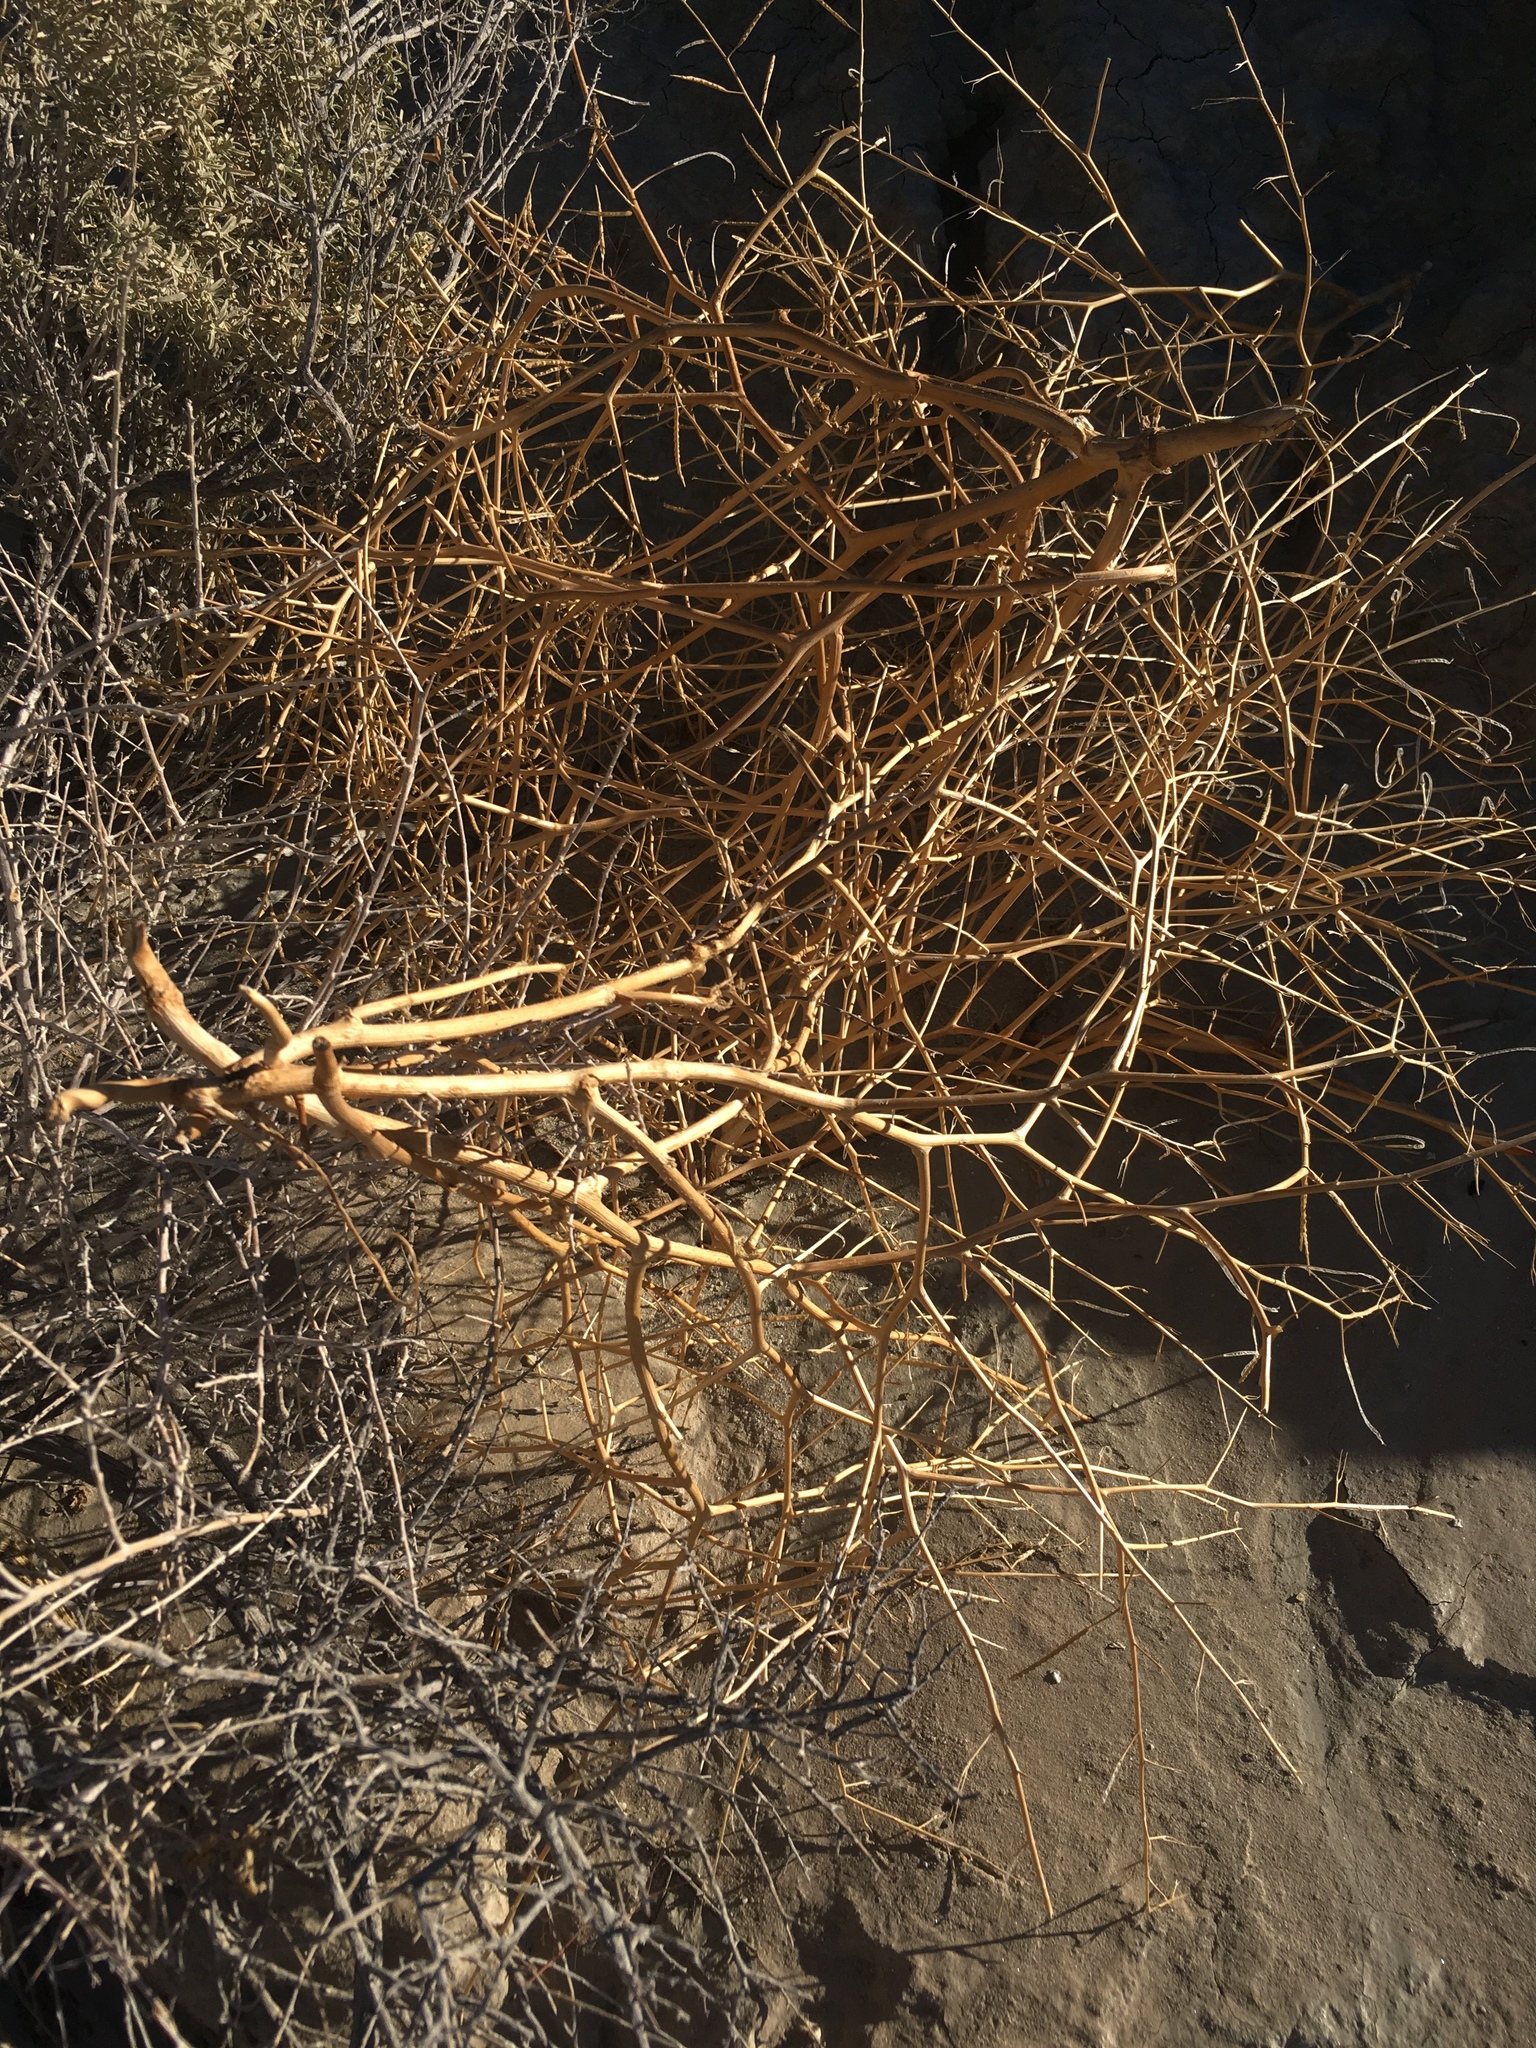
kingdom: Plantae
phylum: Tracheophyta
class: Magnoliopsida
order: Brassicales
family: Brassicaceae
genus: Brassica
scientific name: Brassica tournefortii
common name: Pale cabbage
